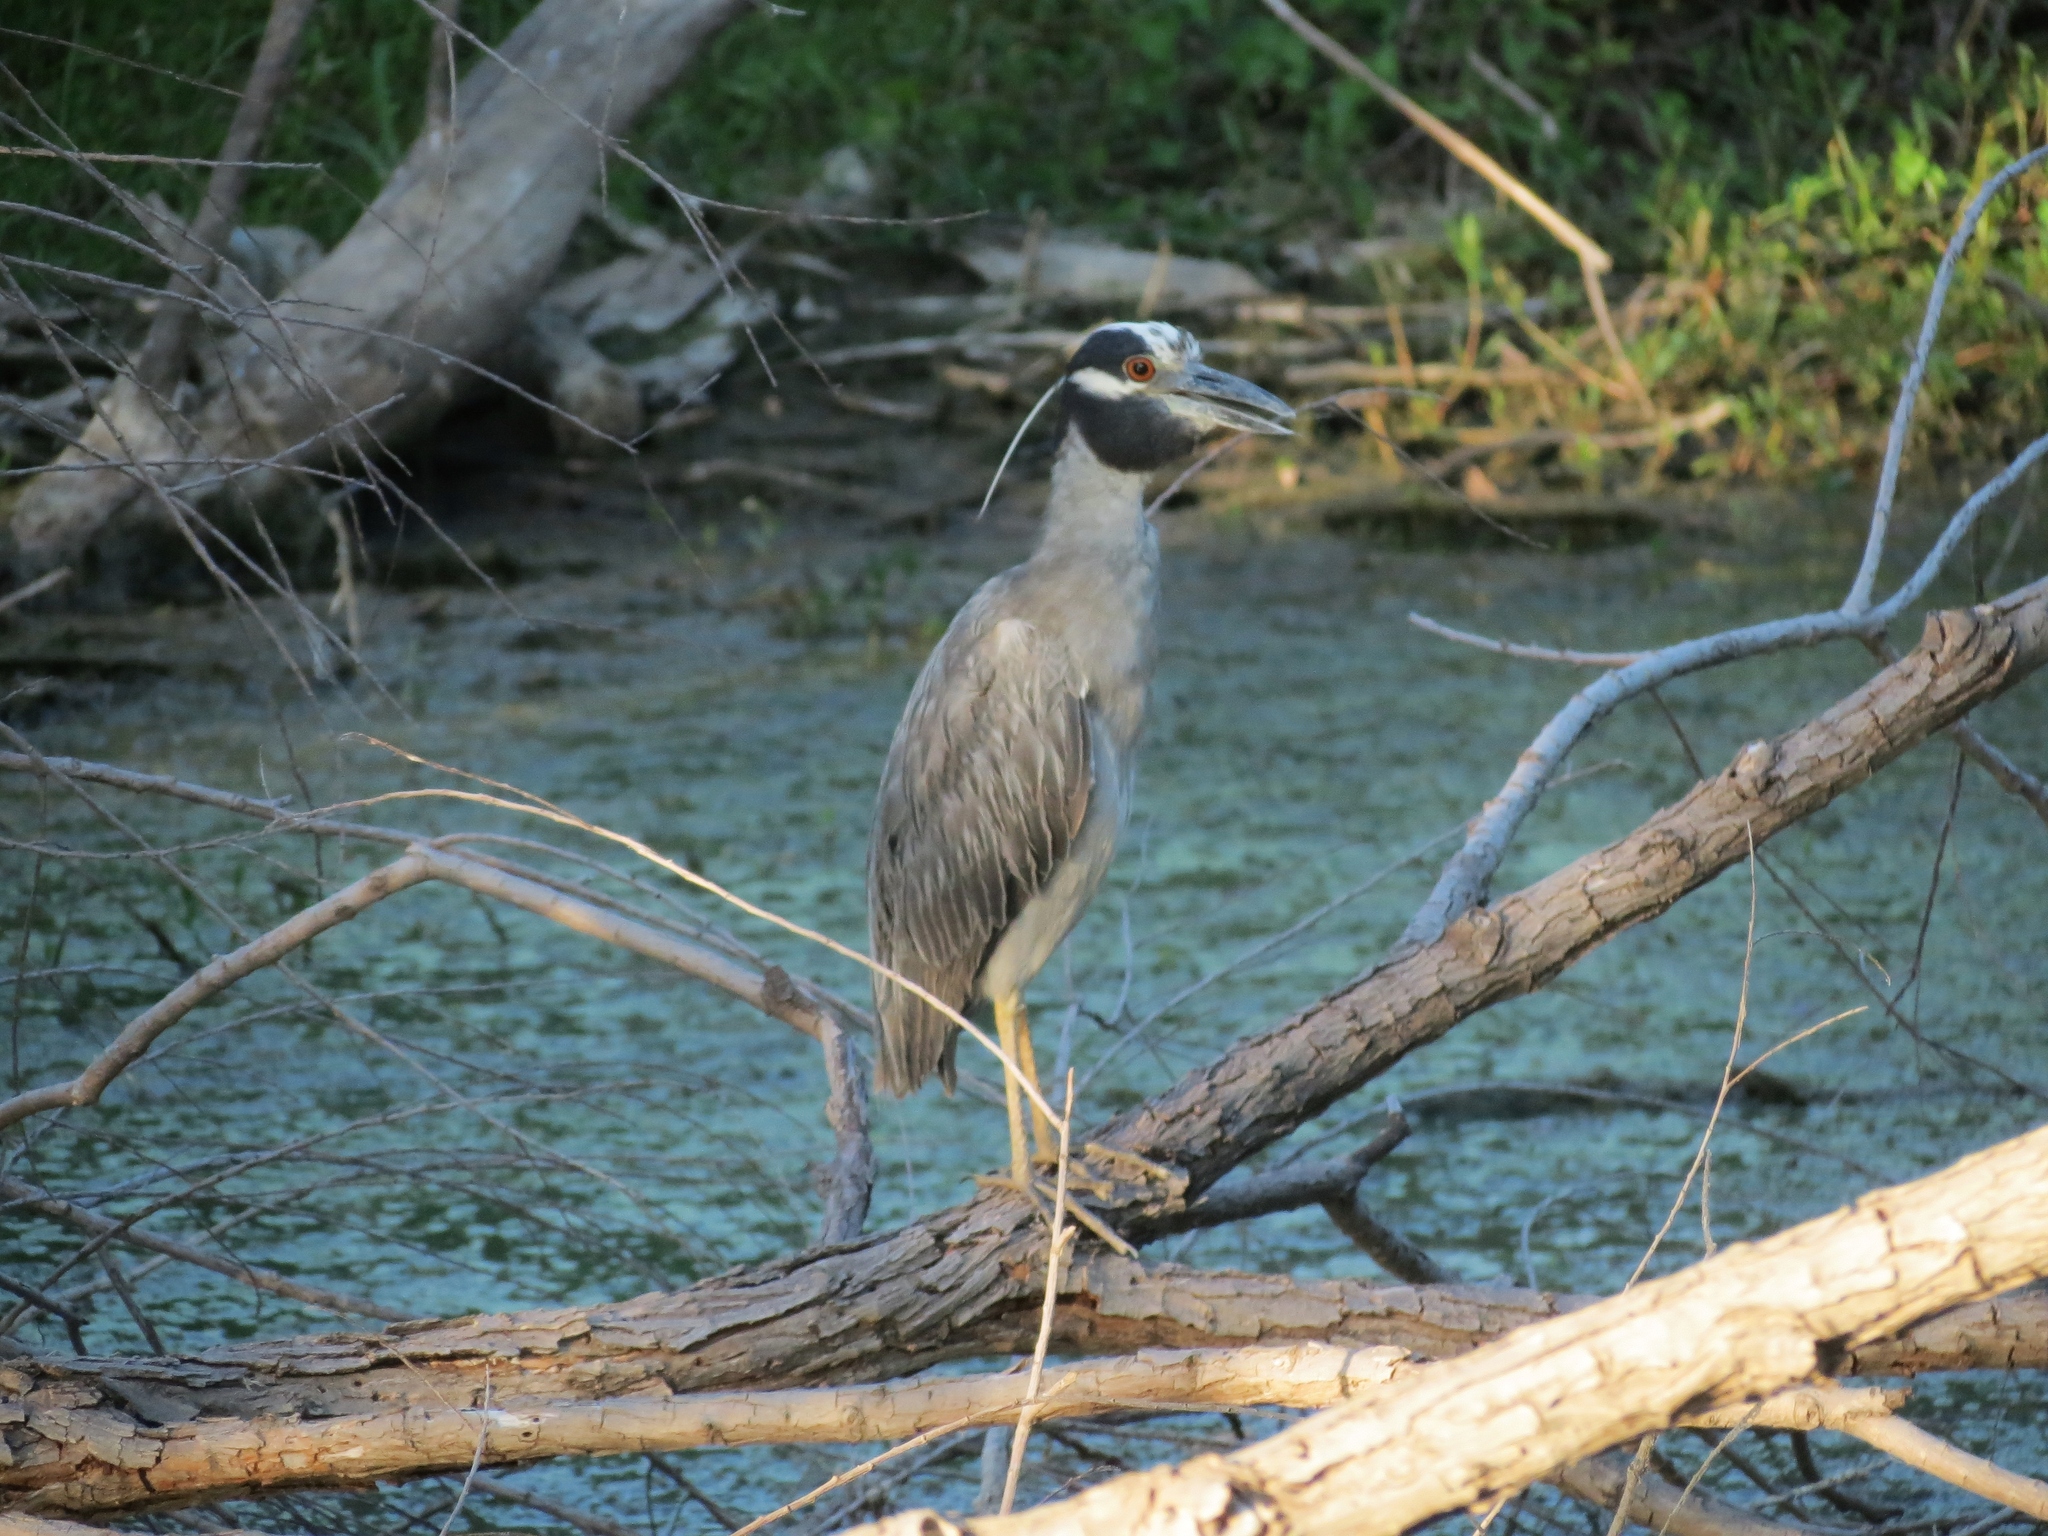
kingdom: Animalia
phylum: Chordata
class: Aves
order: Pelecaniformes
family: Ardeidae
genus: Nyctanassa
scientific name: Nyctanassa violacea
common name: Yellow-crowned night heron
